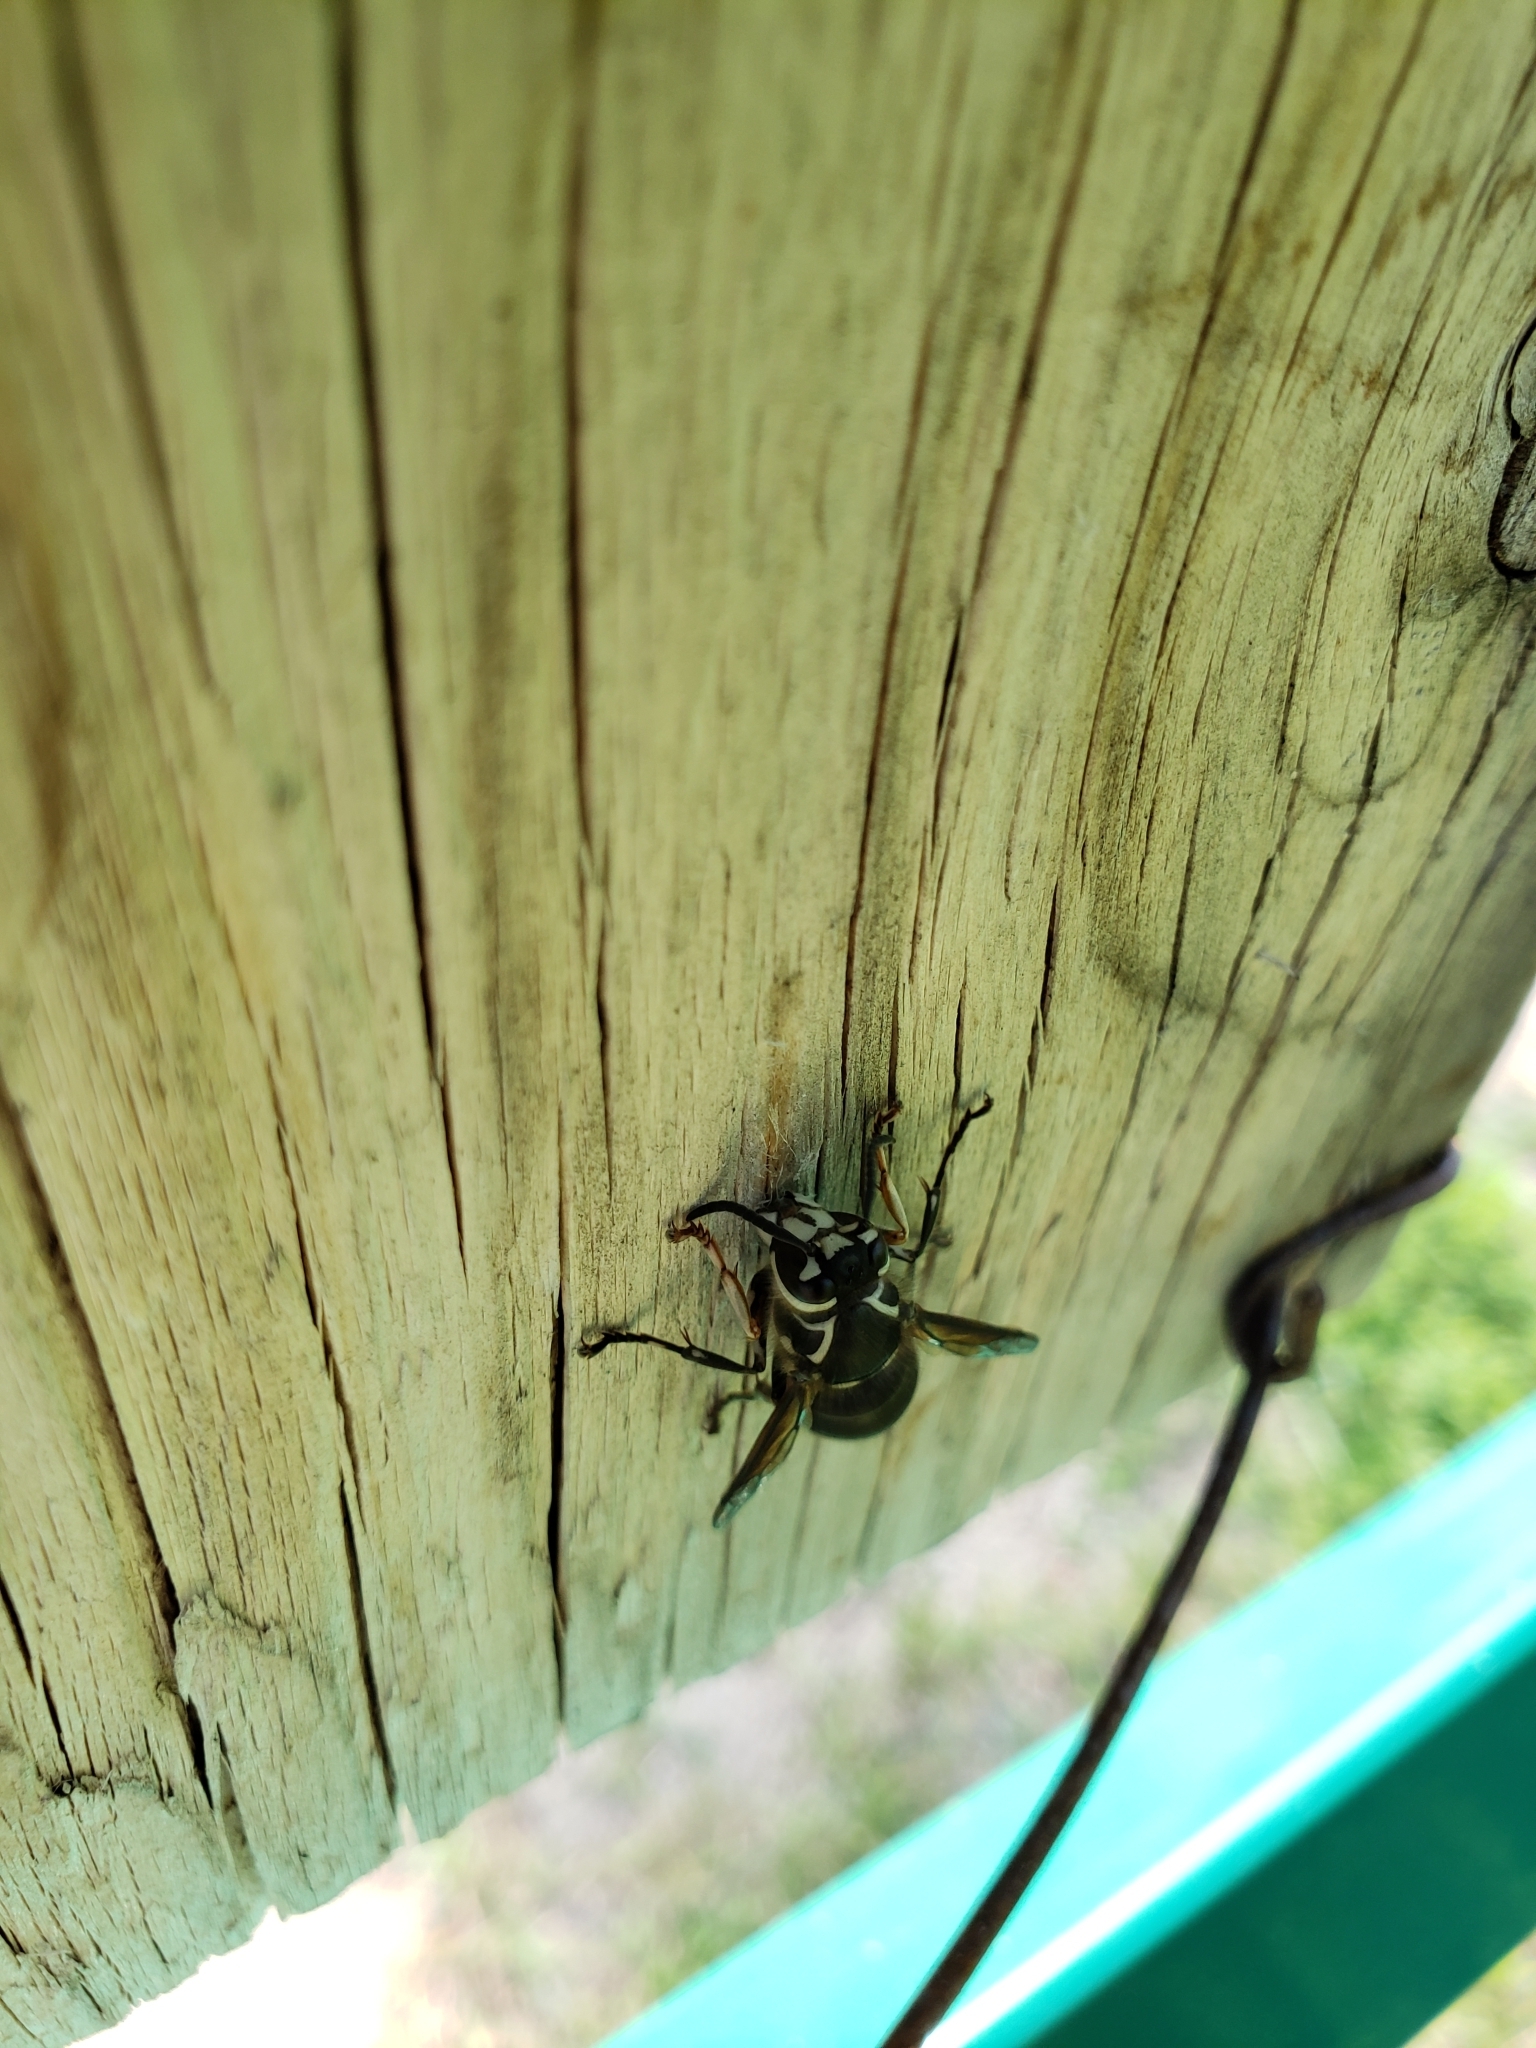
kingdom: Animalia
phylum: Arthropoda
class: Insecta
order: Hymenoptera
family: Vespidae
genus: Dolichovespula
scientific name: Dolichovespula maculata
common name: Bald-faced hornet
